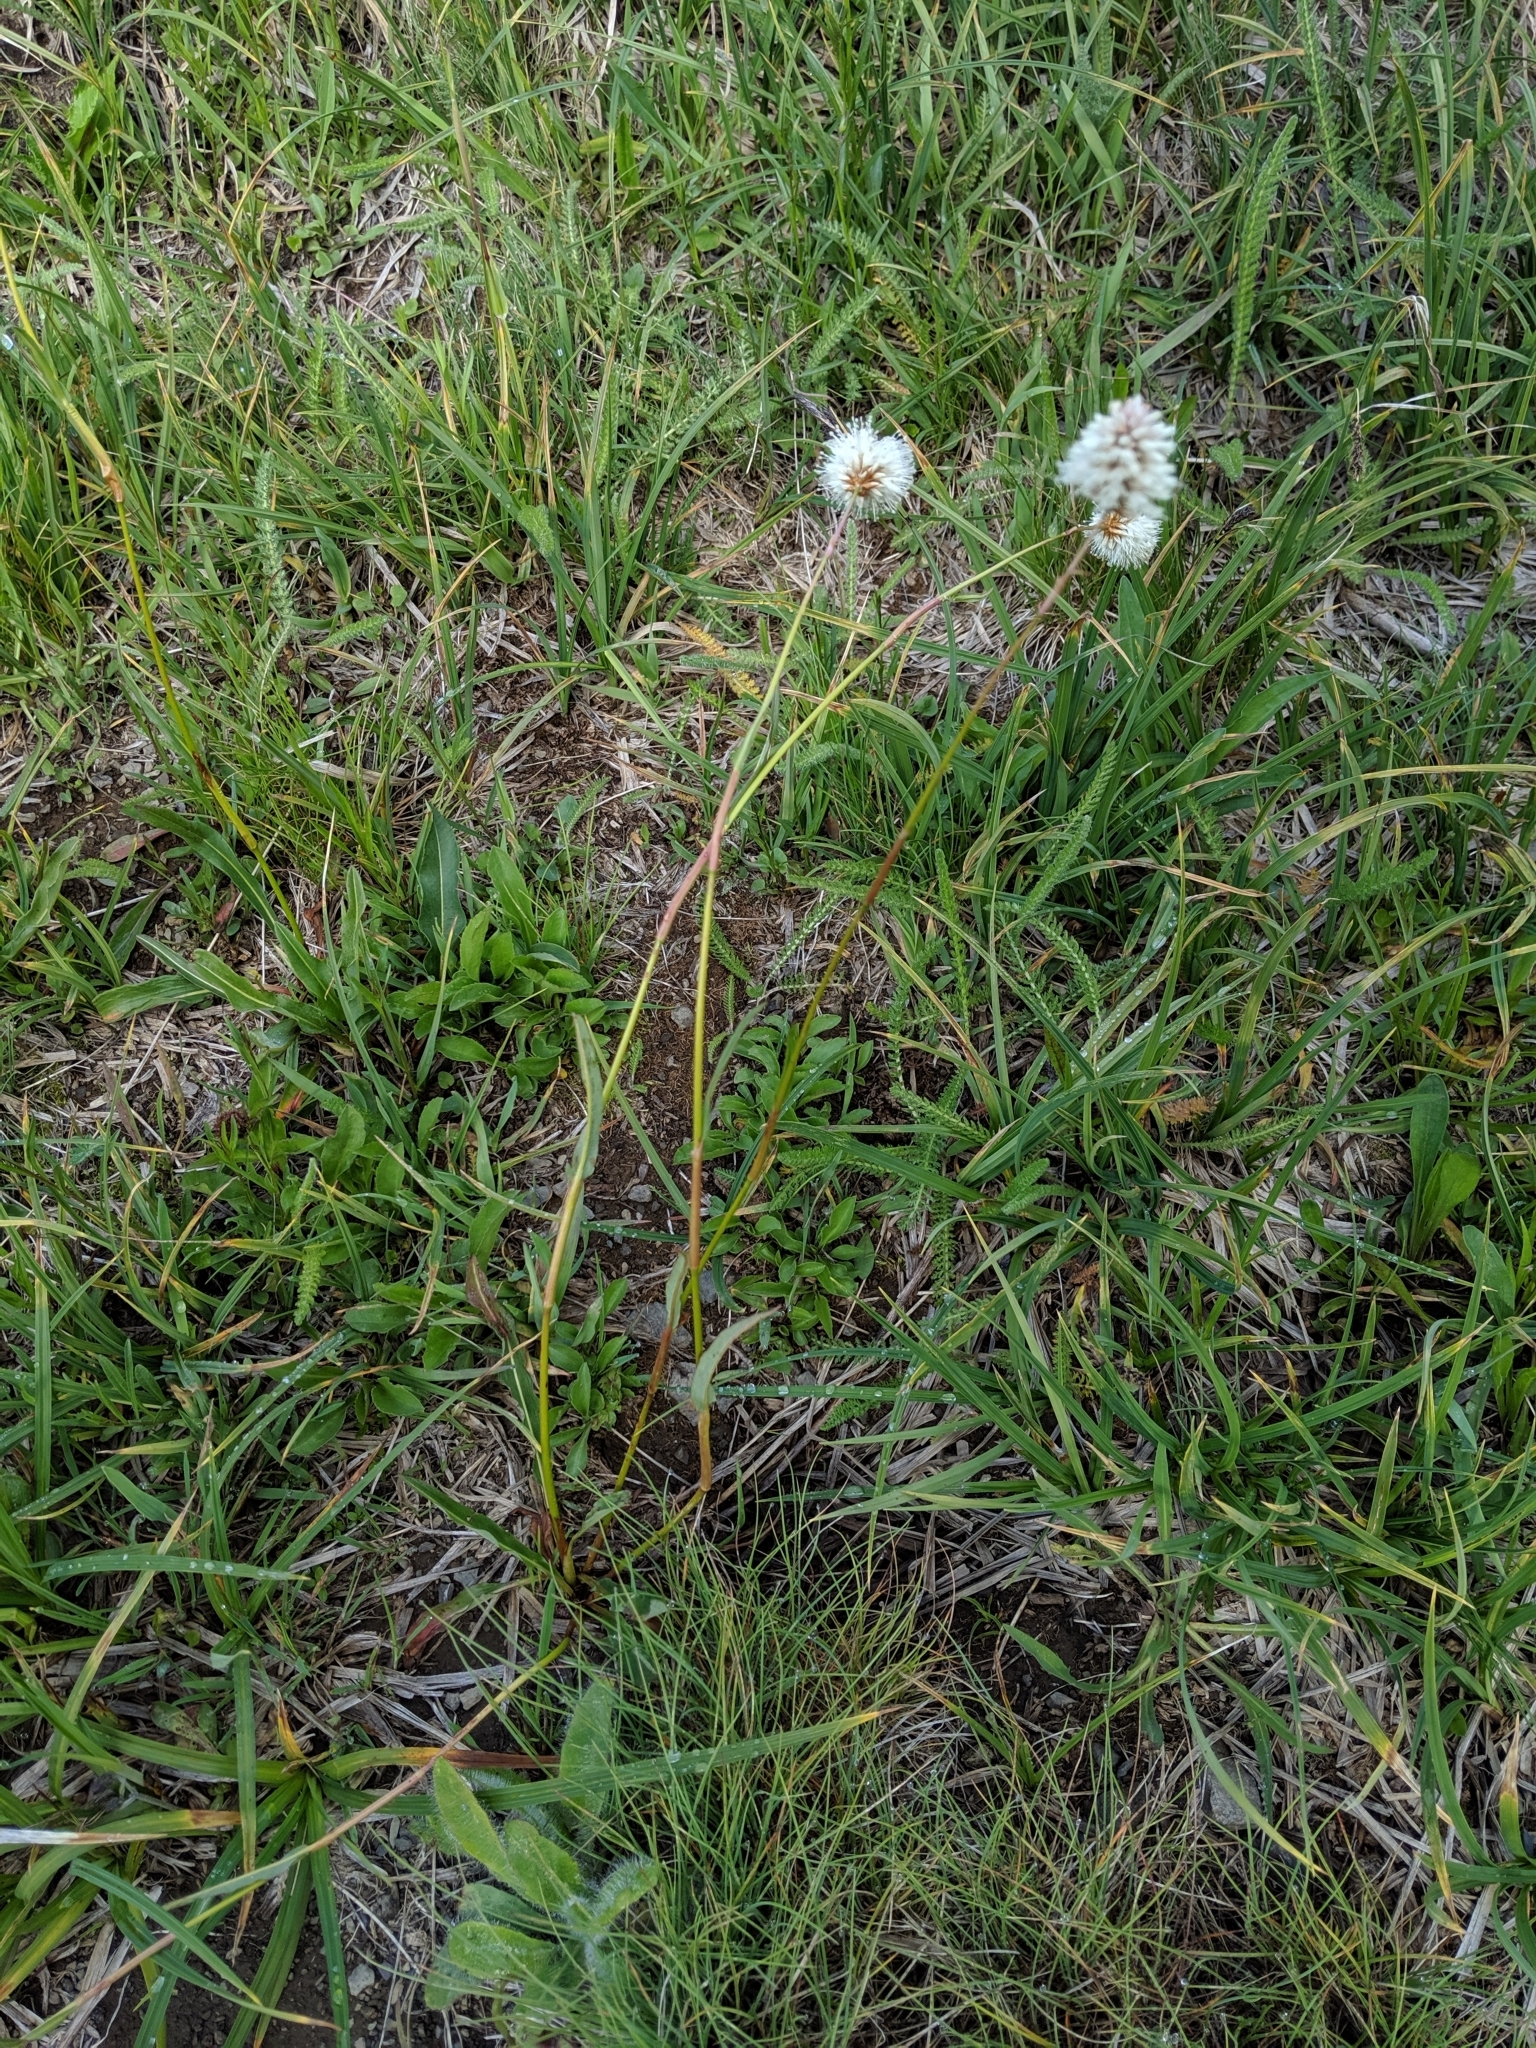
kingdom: Plantae
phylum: Tracheophyta
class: Magnoliopsida
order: Caryophyllales
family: Polygonaceae
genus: Bistorta
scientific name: Bistorta bistortoides
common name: American bistort
